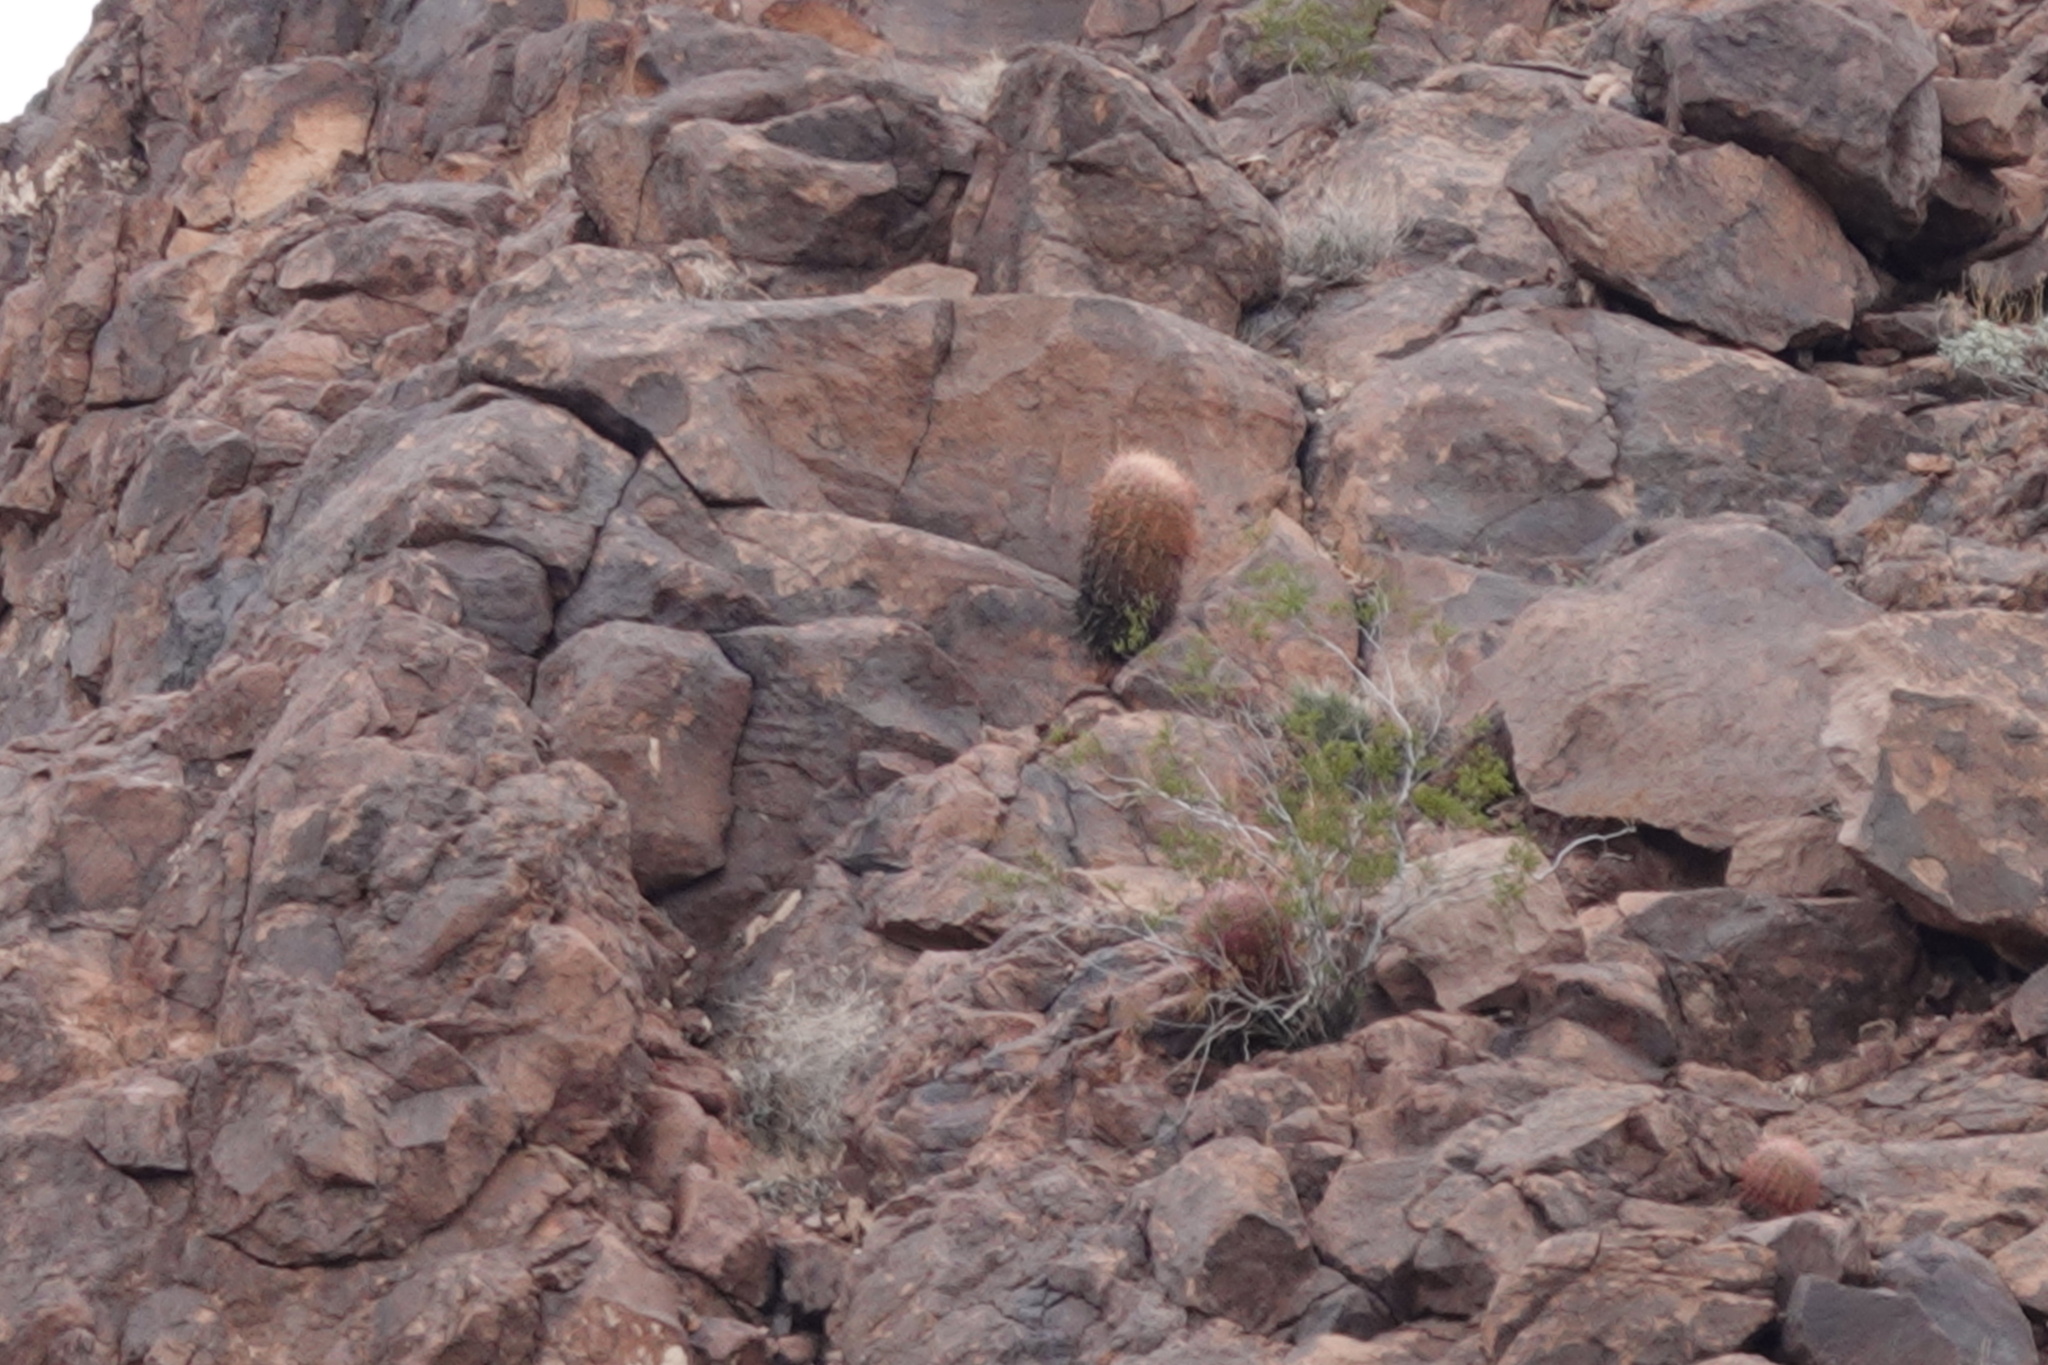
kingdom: Plantae
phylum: Tracheophyta
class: Magnoliopsida
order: Caryophyllales
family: Cactaceae
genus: Ferocactus
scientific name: Ferocactus cylindraceus
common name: California barrel cactus
